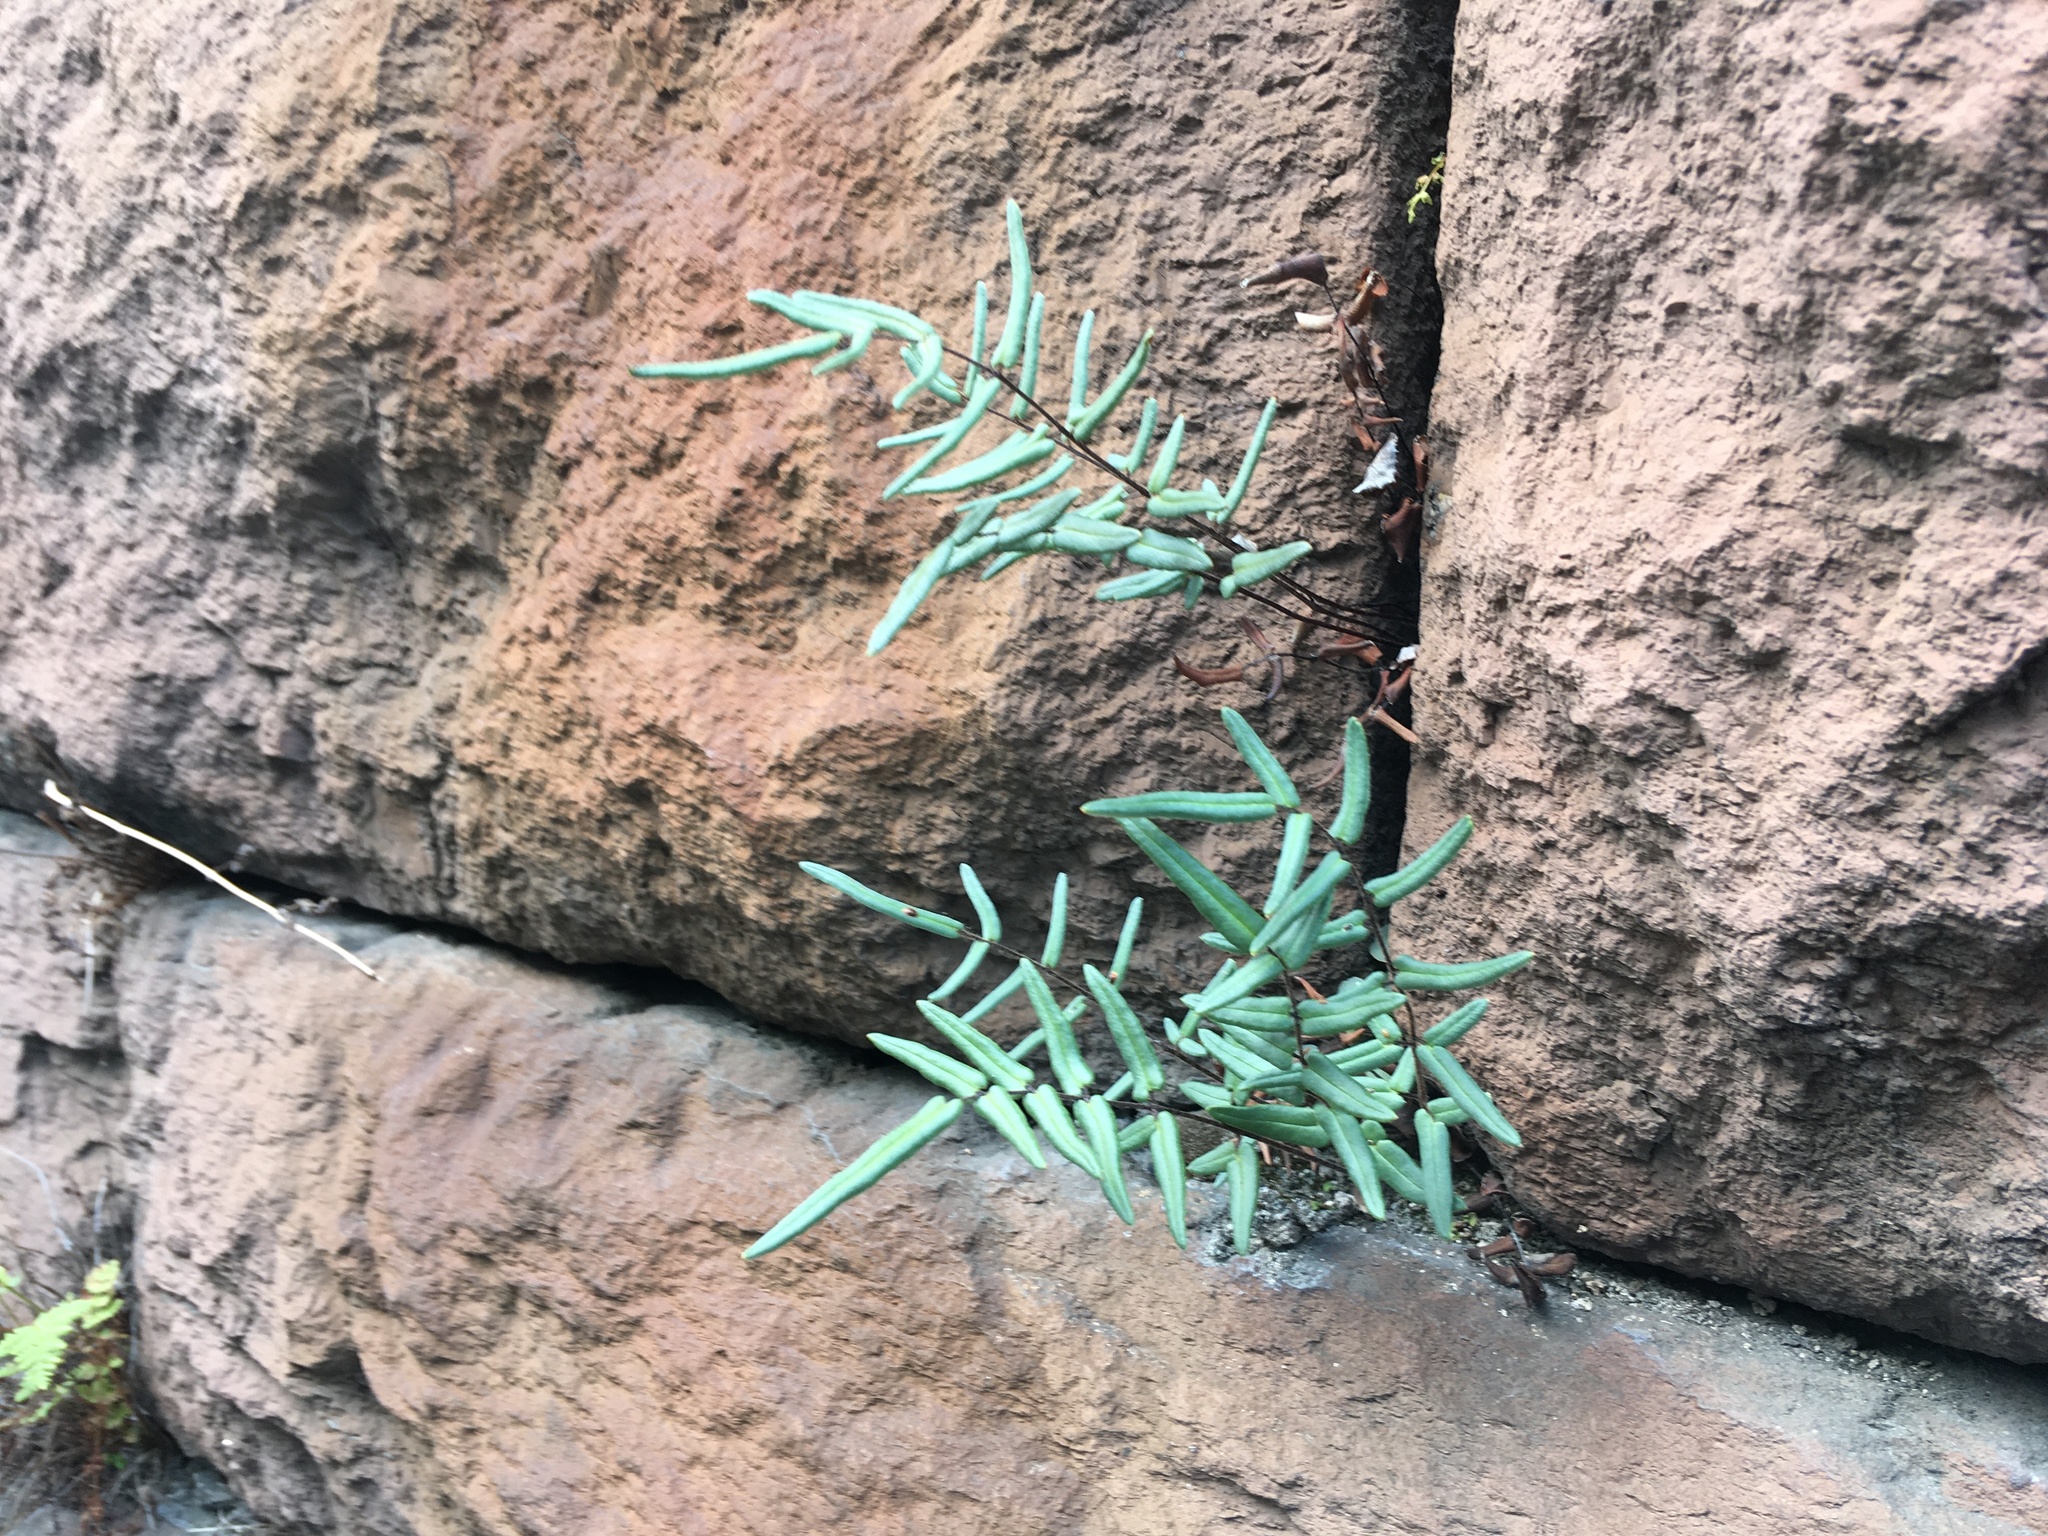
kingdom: Plantae
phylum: Tracheophyta
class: Polypodiopsida
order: Polypodiales
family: Pteridaceae
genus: Pellaea
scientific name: Pellaea atropurpurea
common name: Hairy cliffbrake
